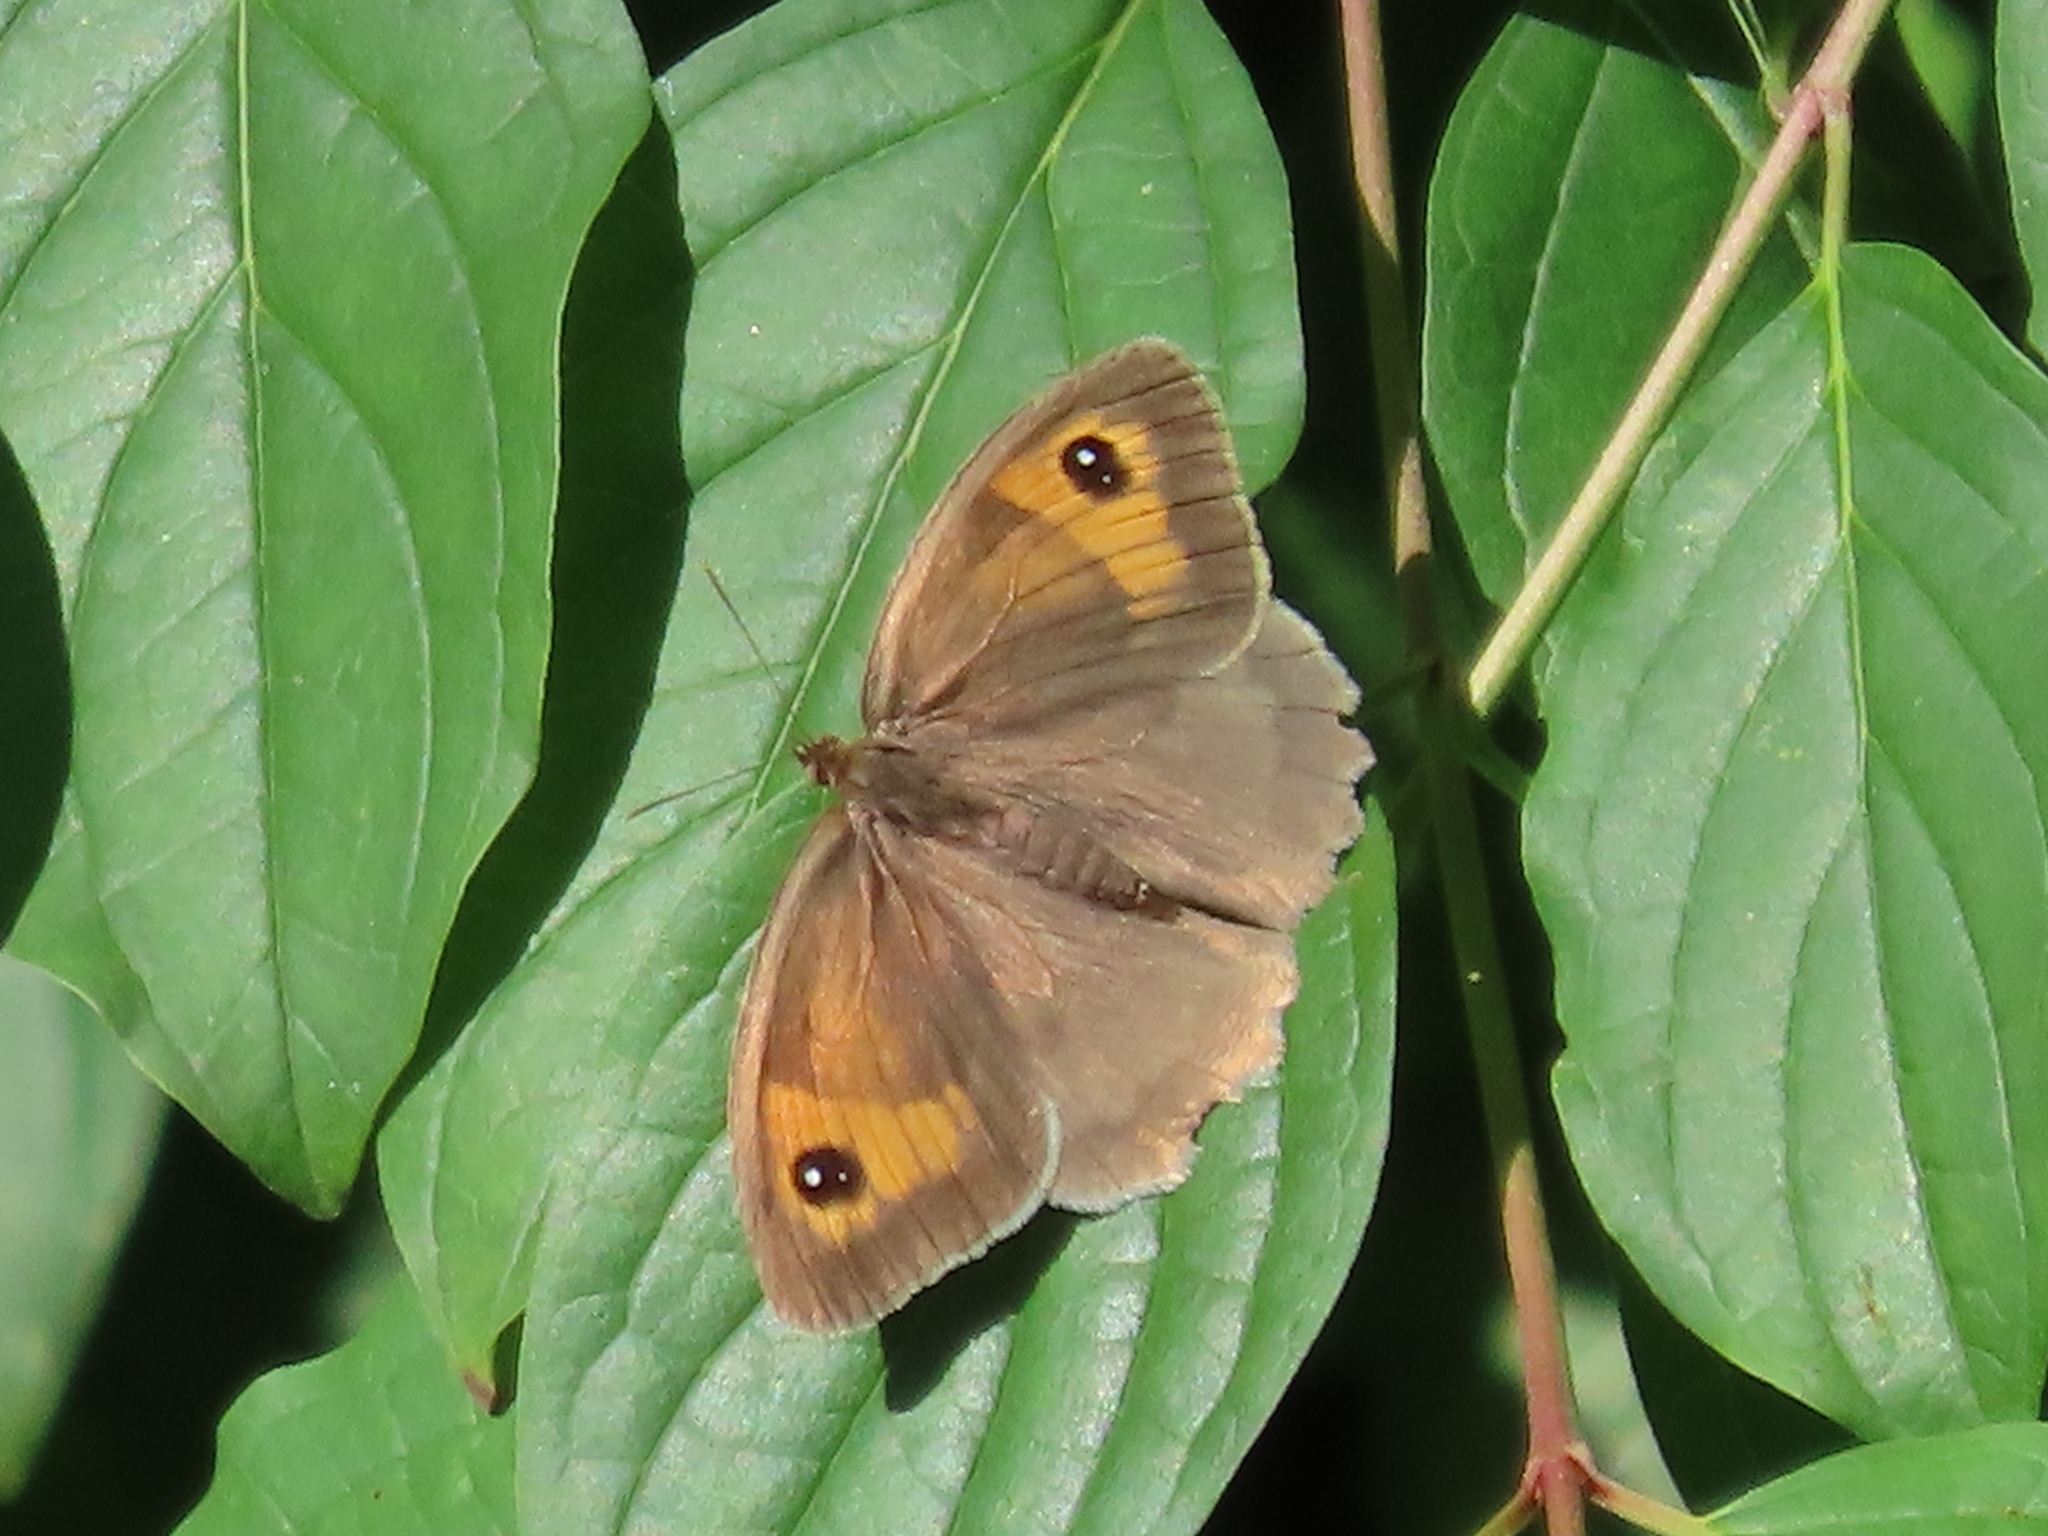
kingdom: Animalia
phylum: Arthropoda
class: Insecta
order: Lepidoptera
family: Nymphalidae
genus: Maniola
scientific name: Maniola jurtina
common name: Meadow brown
